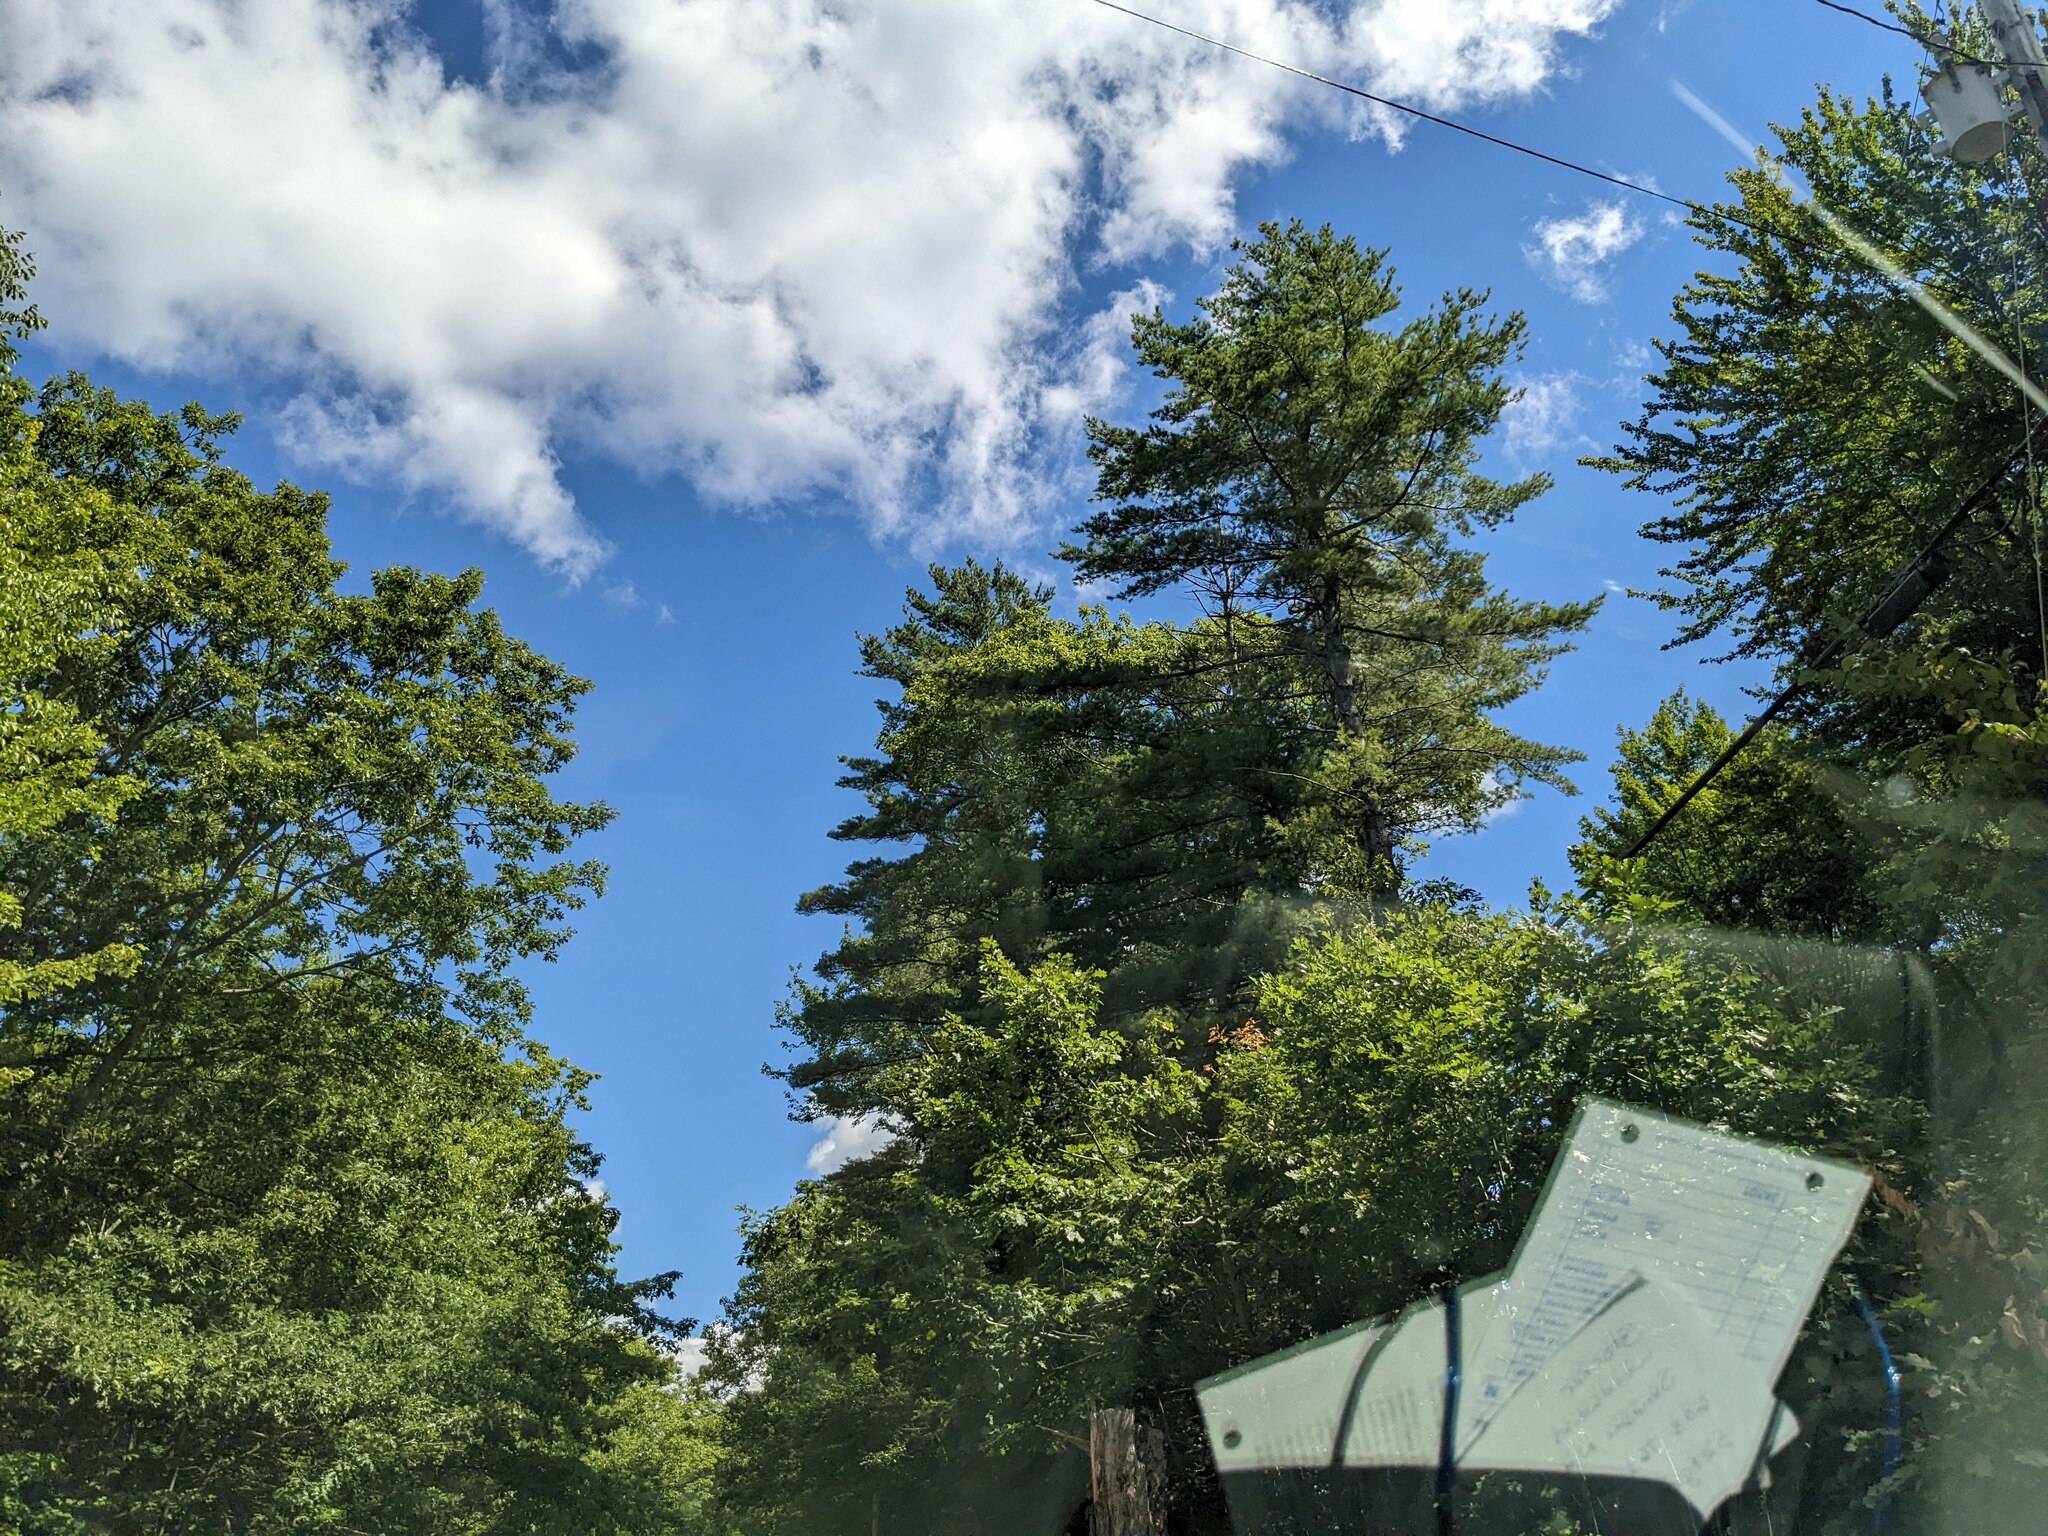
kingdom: Plantae
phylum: Tracheophyta
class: Pinopsida
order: Pinales
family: Pinaceae
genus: Pinus
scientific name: Pinus strobus
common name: Weymouth pine
